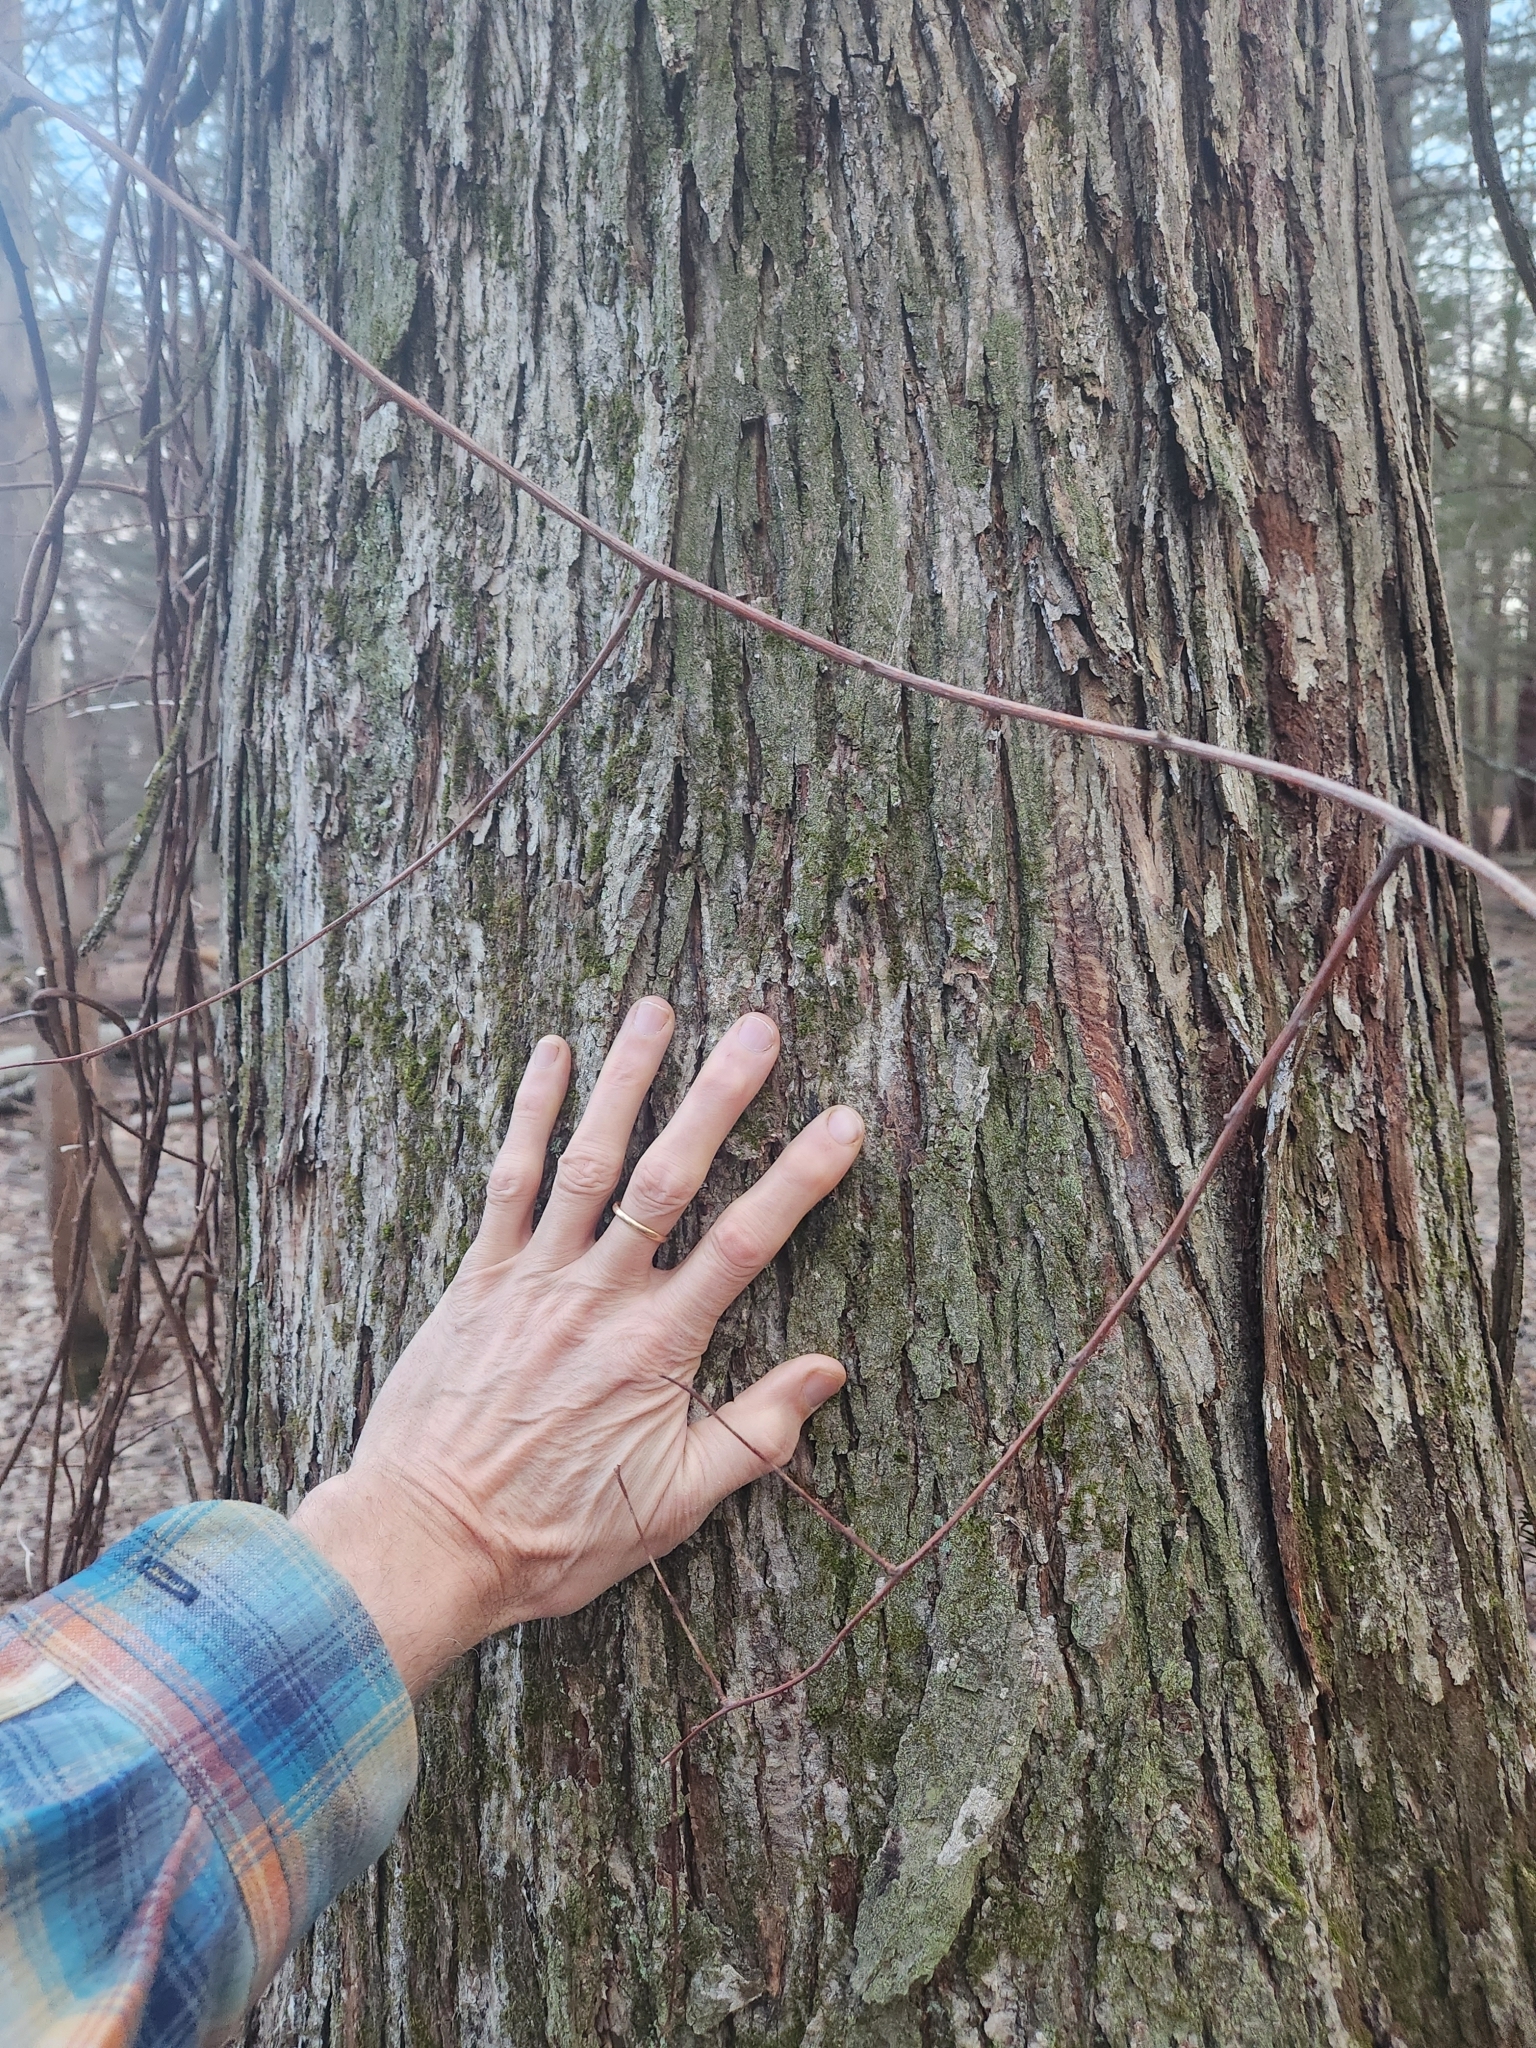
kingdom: Plantae
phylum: Tracheophyta
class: Magnoliopsida
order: Fagales
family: Juglandaceae
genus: Carya
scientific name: Carya ovata
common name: Shagbark hickory
